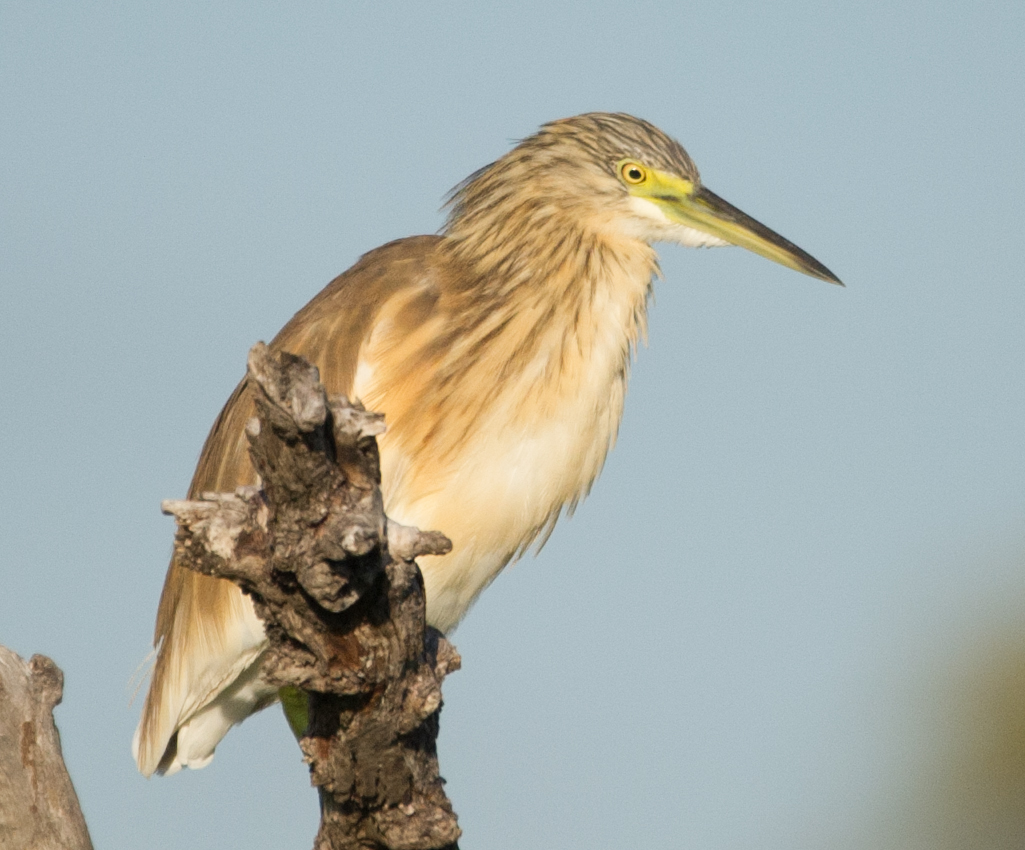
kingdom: Animalia
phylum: Chordata
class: Aves
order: Pelecaniformes
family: Ardeidae
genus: Ardeola
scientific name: Ardeola ralloides
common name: Squacco heron
